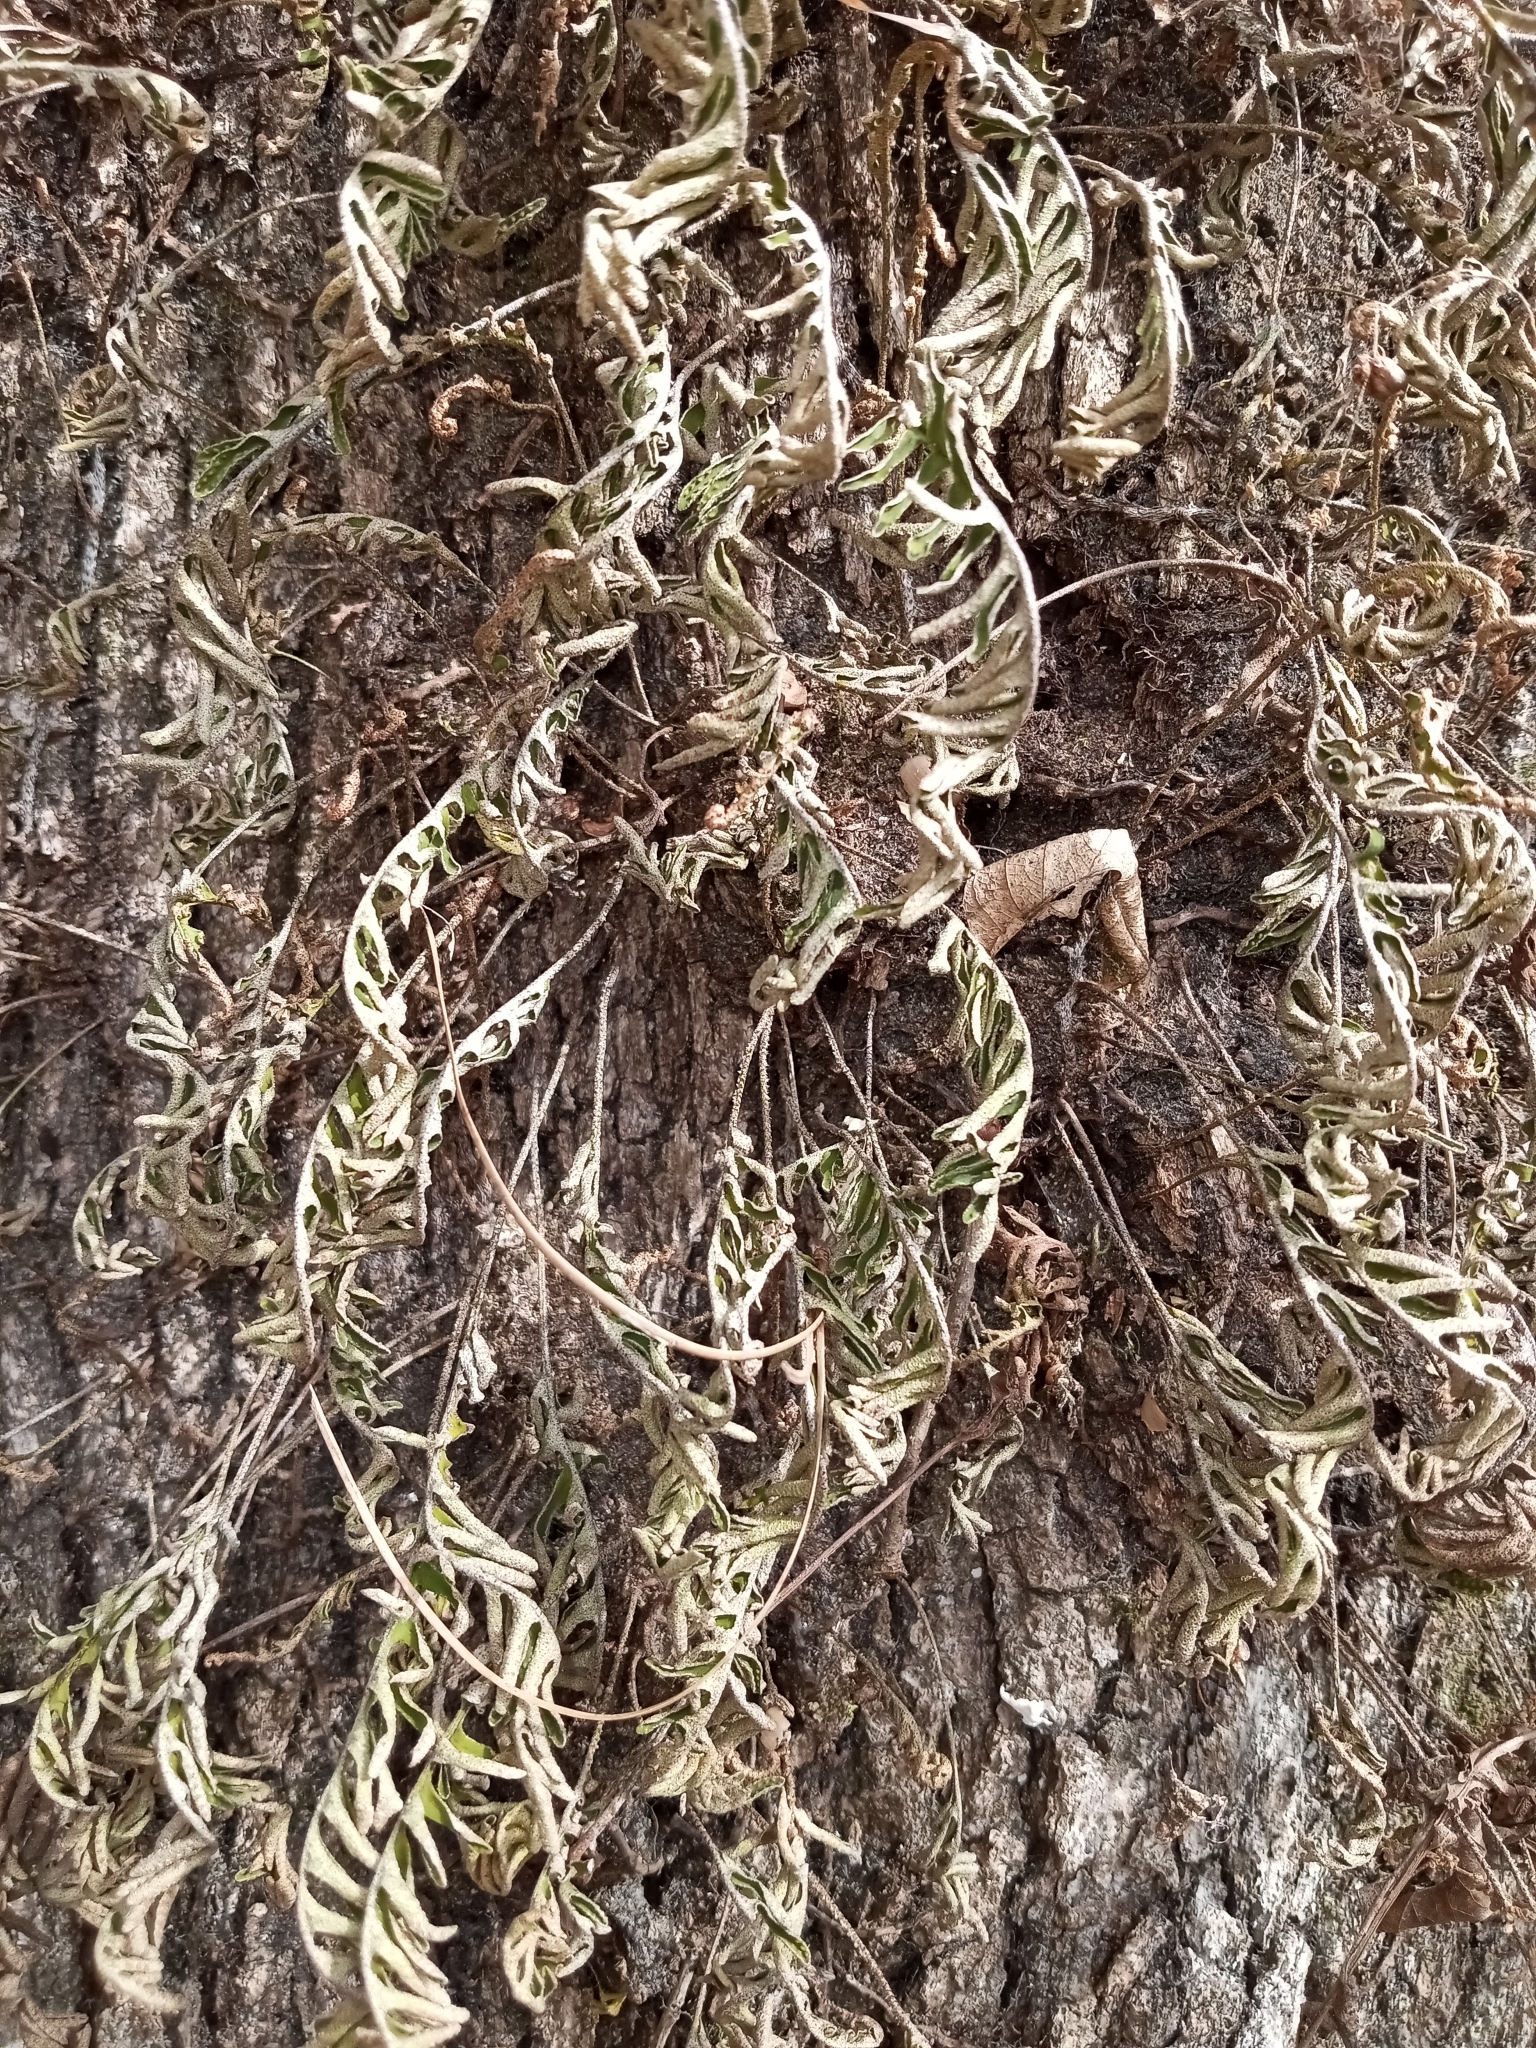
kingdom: Plantae
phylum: Tracheophyta
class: Polypodiopsida
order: Polypodiales
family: Polypodiaceae
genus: Pleopeltis
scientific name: Pleopeltis michauxiana
